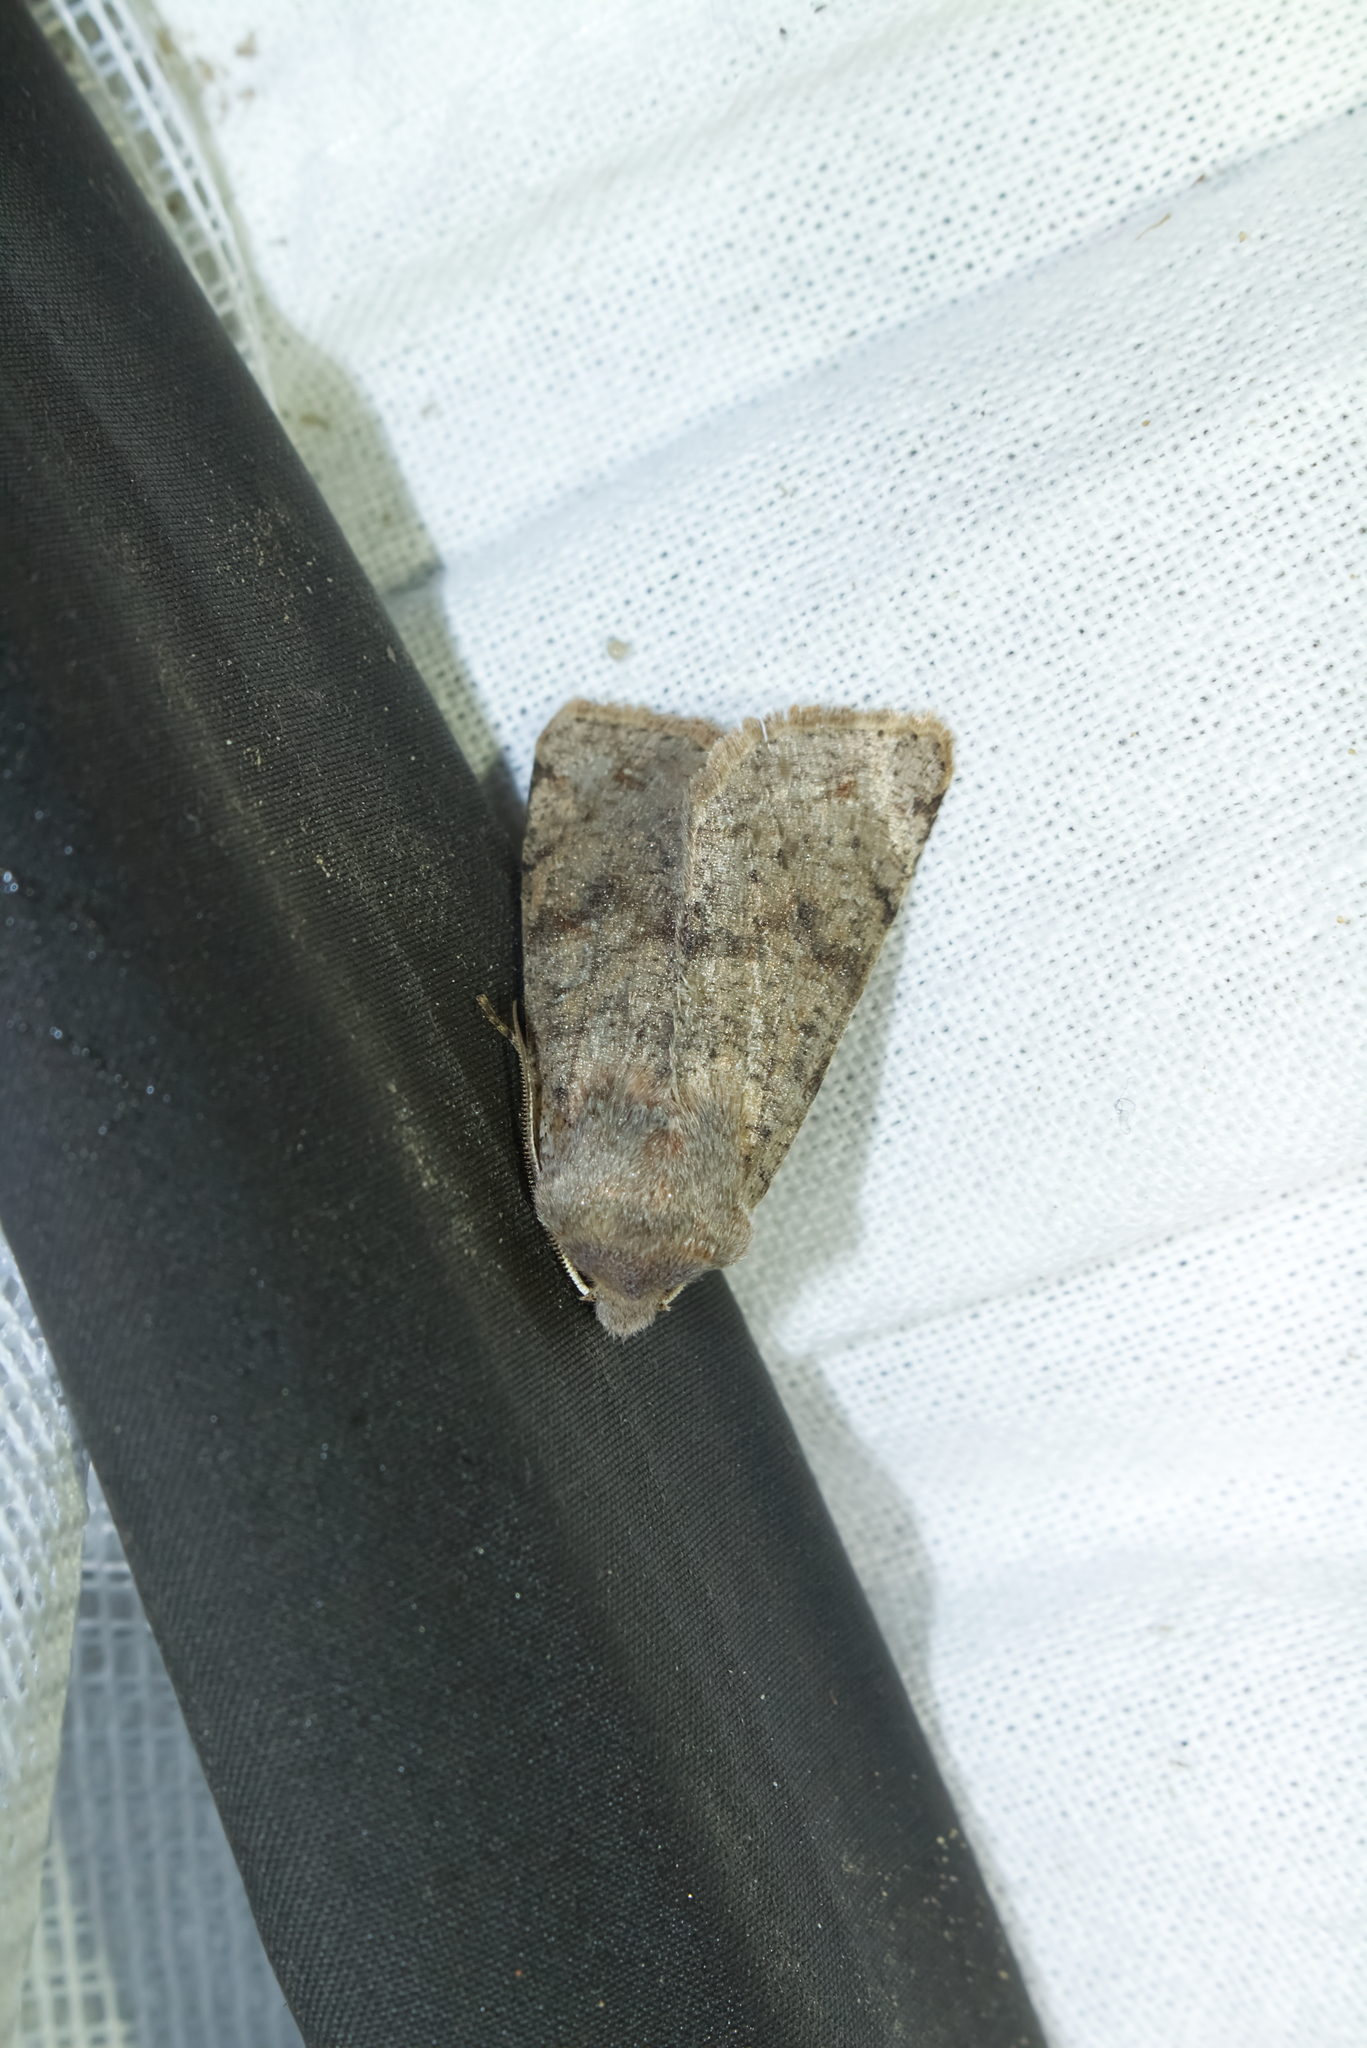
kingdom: Animalia
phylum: Arthropoda
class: Insecta
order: Lepidoptera
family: Noctuidae
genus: Orthosia
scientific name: Orthosia incerta
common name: Clouded drab
